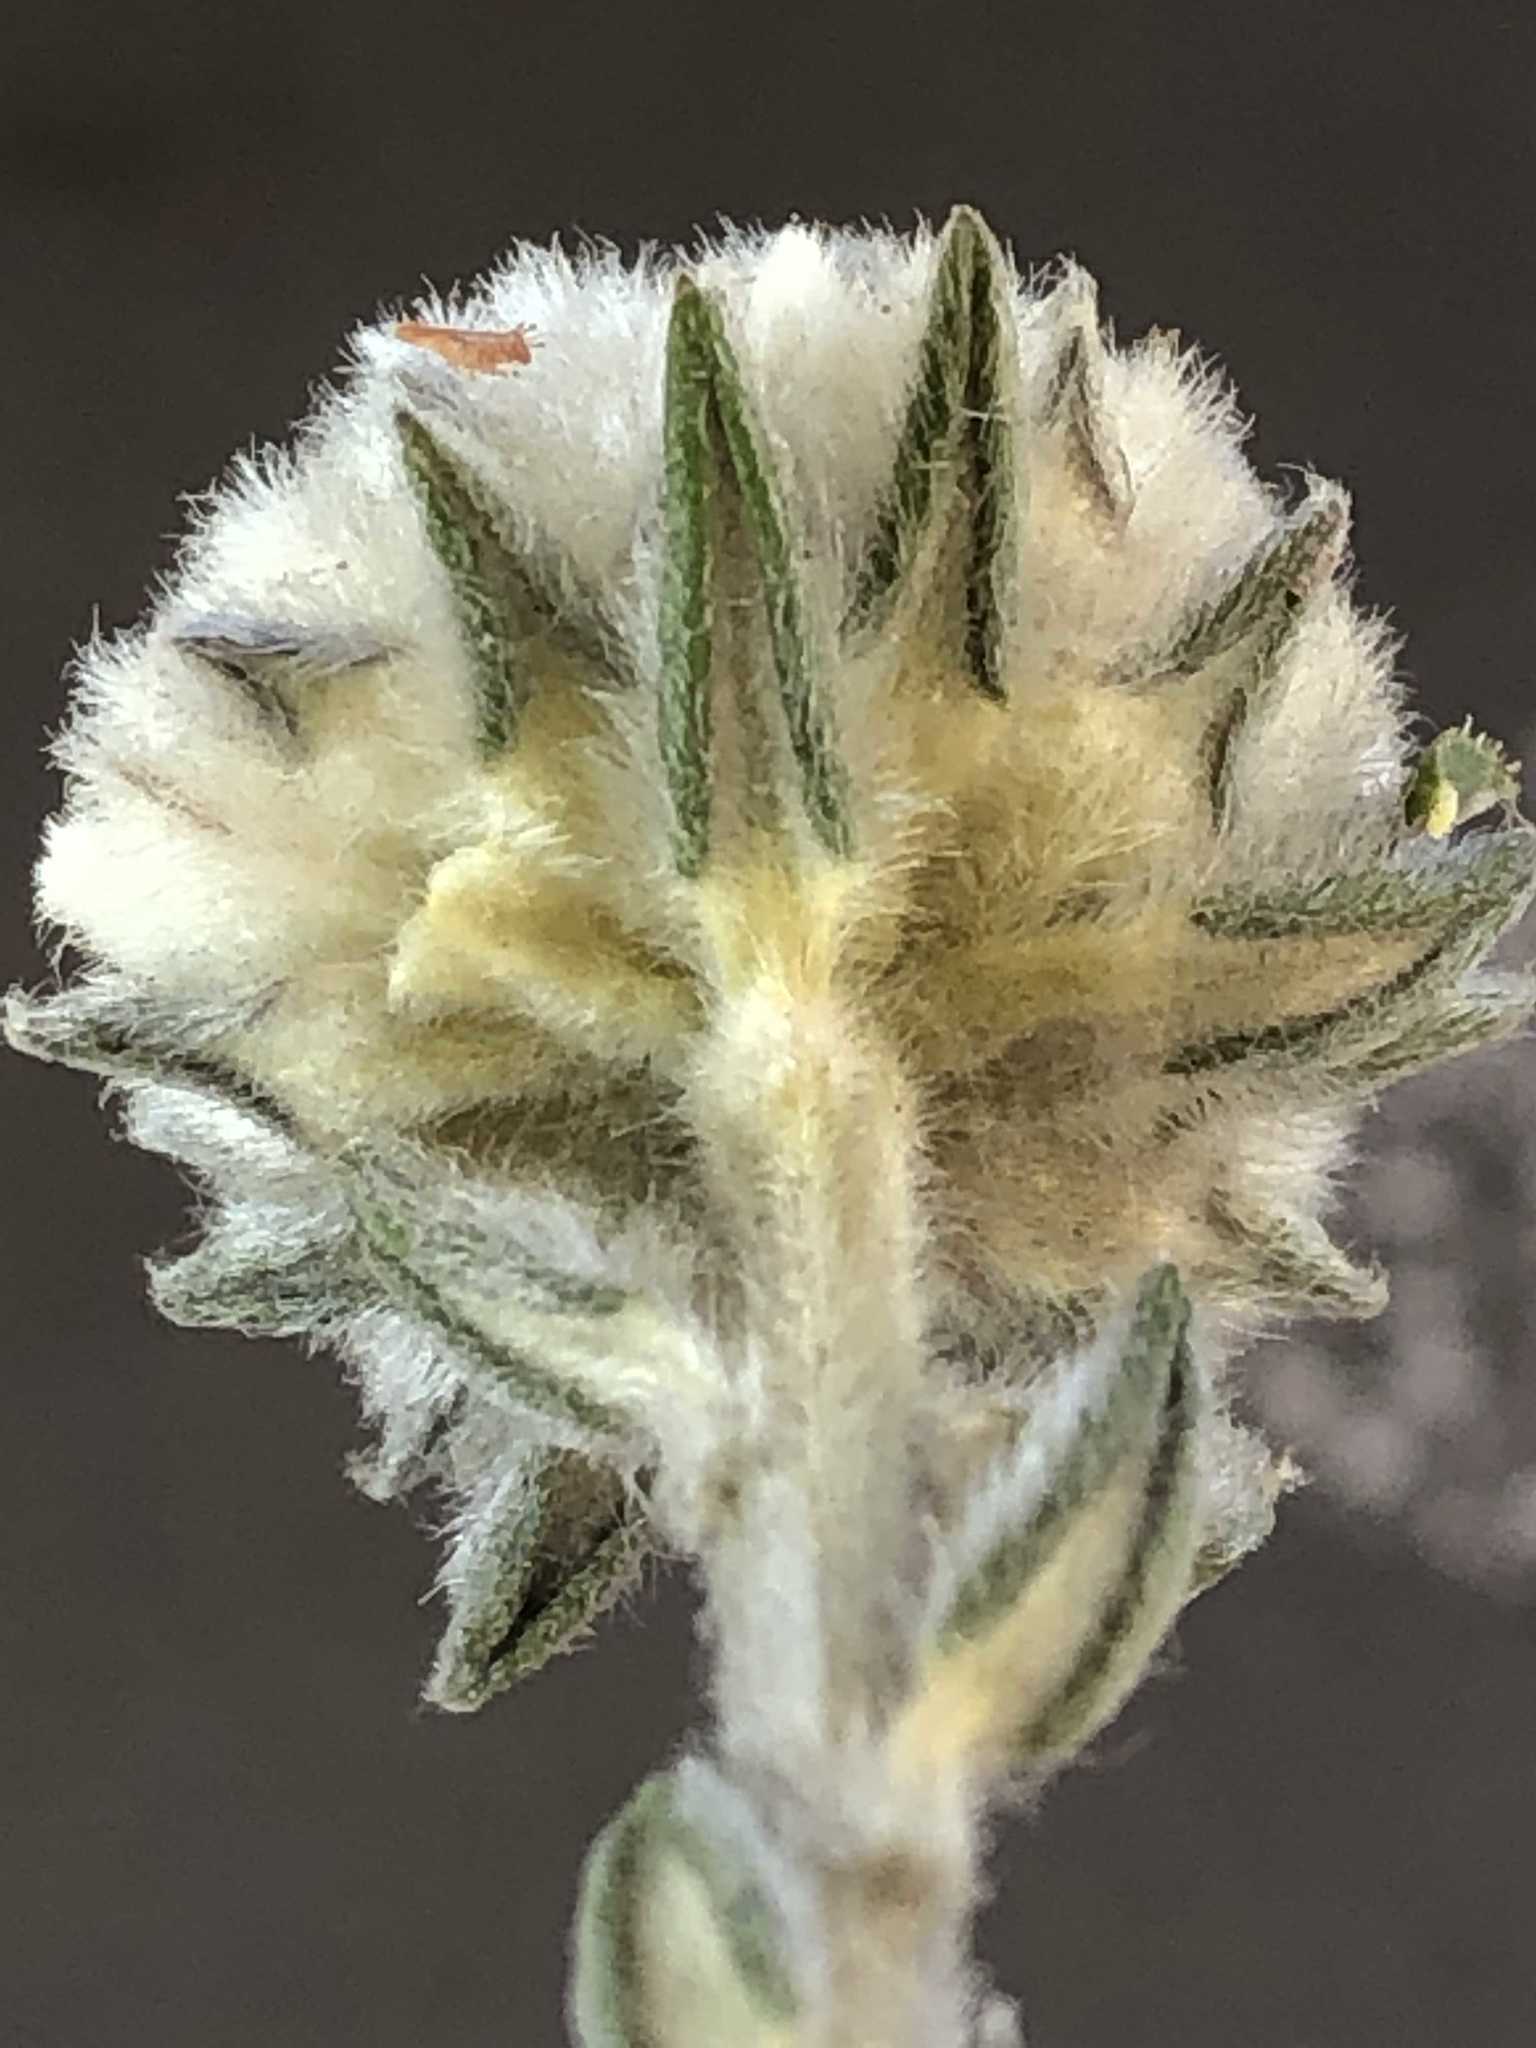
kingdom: Plantae
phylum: Tracheophyta
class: Magnoliopsida
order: Rosales
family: Rhamnaceae
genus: Phylica
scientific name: Phylica propinqua
